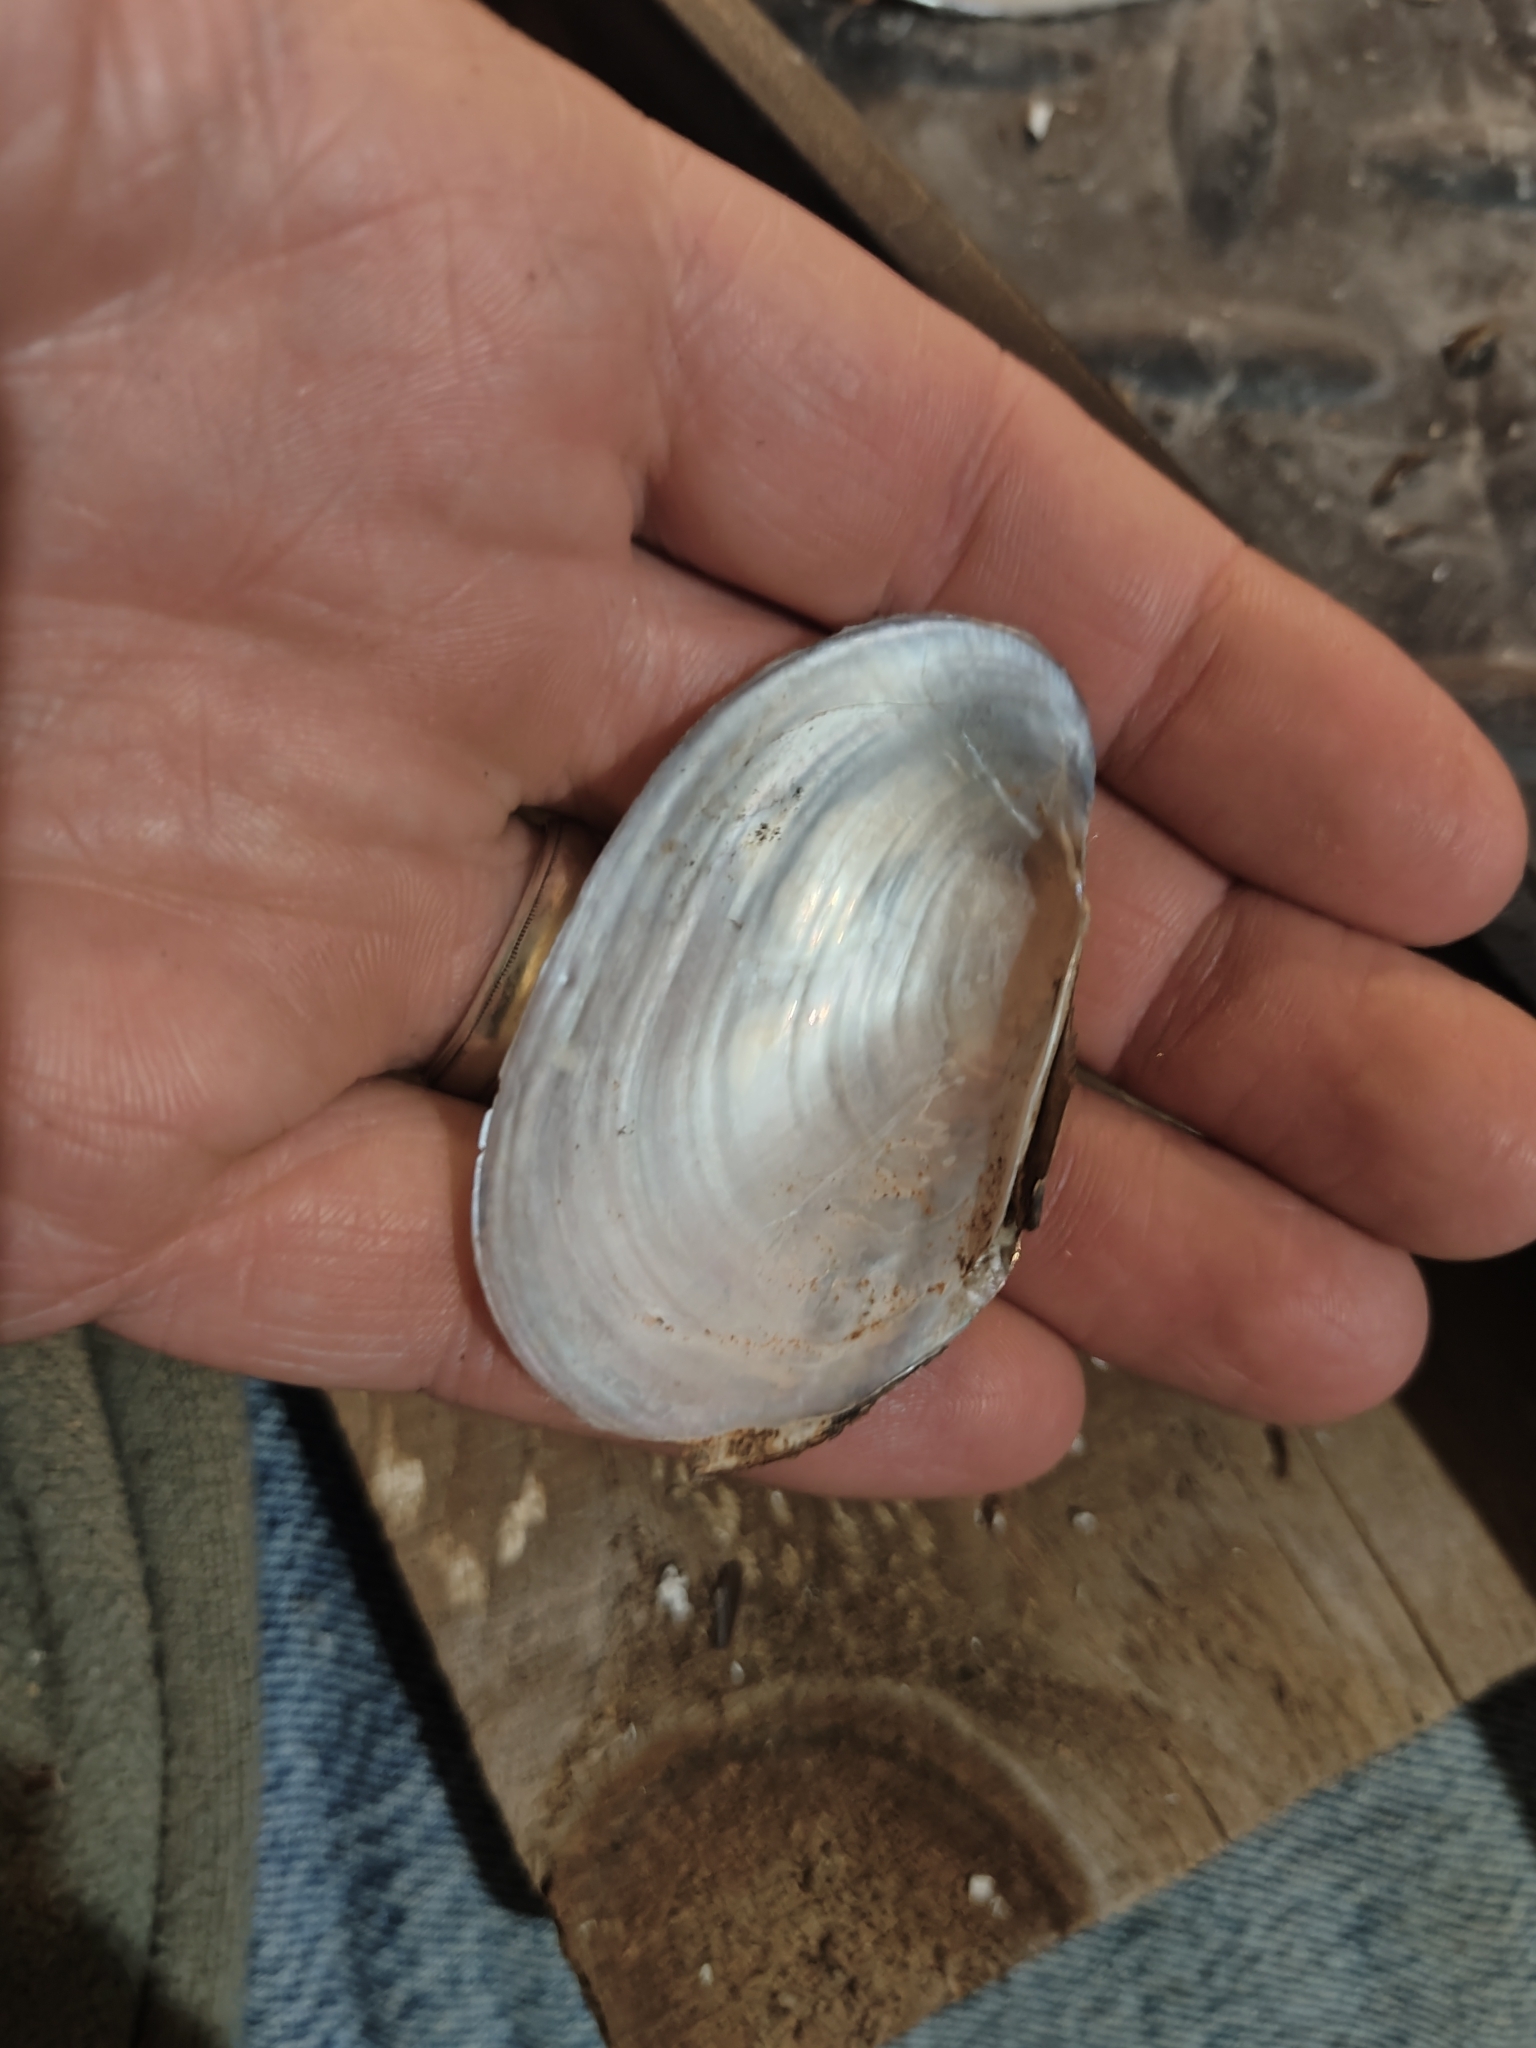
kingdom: Animalia
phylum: Mollusca
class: Bivalvia
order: Unionida
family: Unionidae
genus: Potamilus
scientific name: Potamilus fragilis
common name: Fragile papershell
